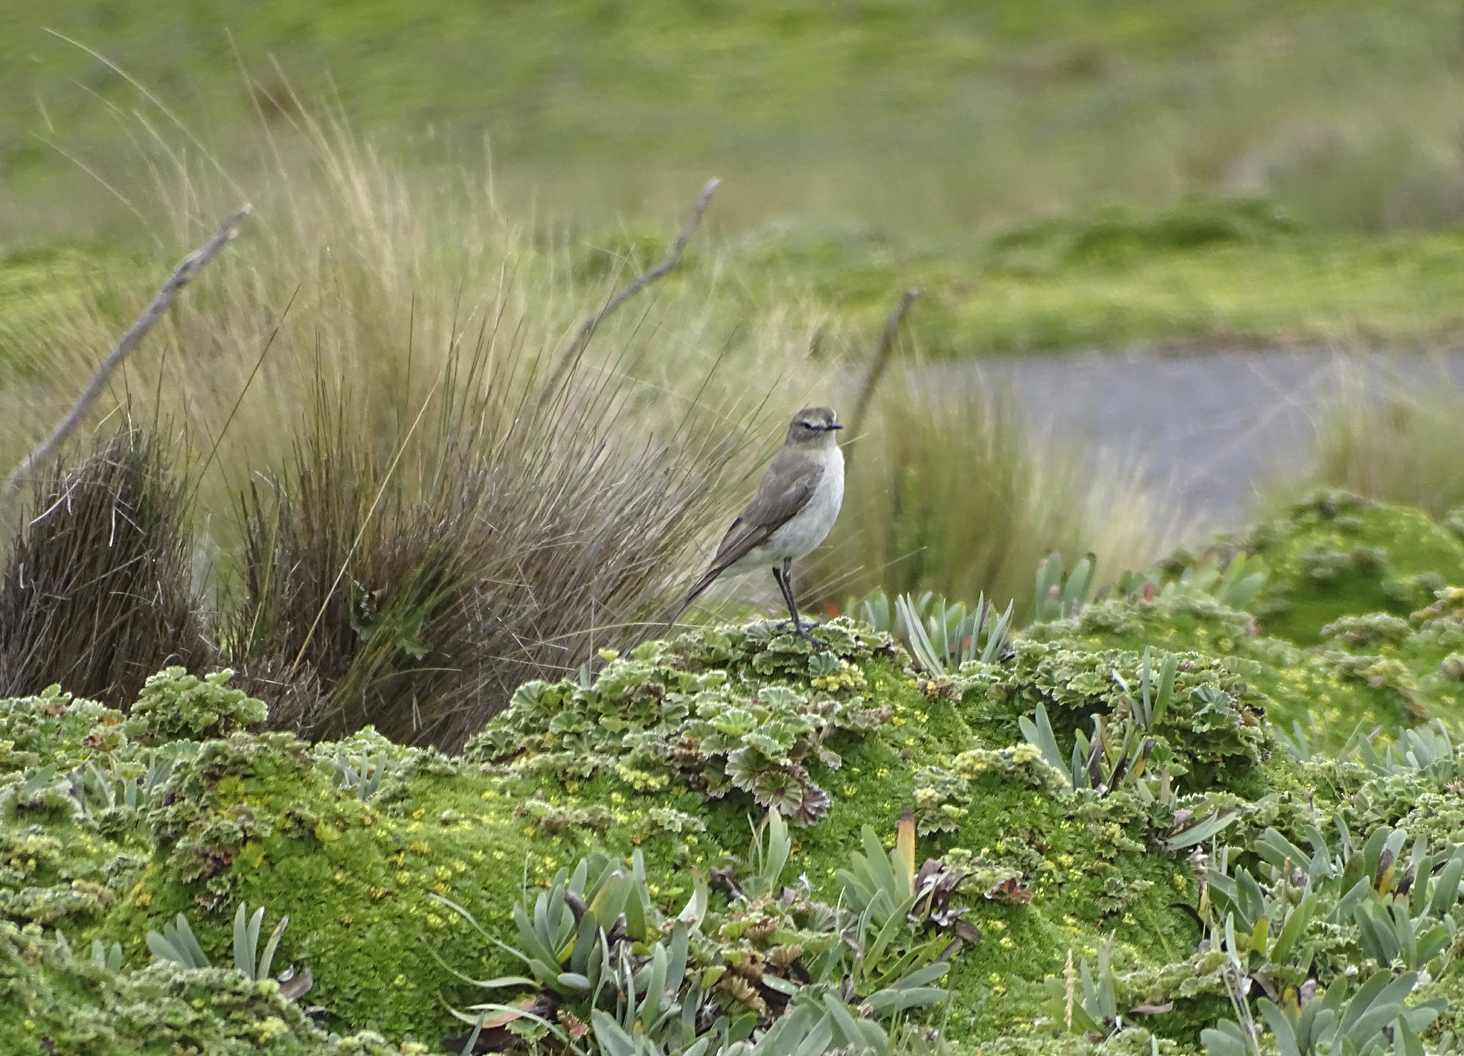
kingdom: Animalia
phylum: Chordata
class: Aves
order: Passeriformes
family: Tyrannidae
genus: Muscisaxicola
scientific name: Muscisaxicola alpinus
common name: Paramo ground tyrant
